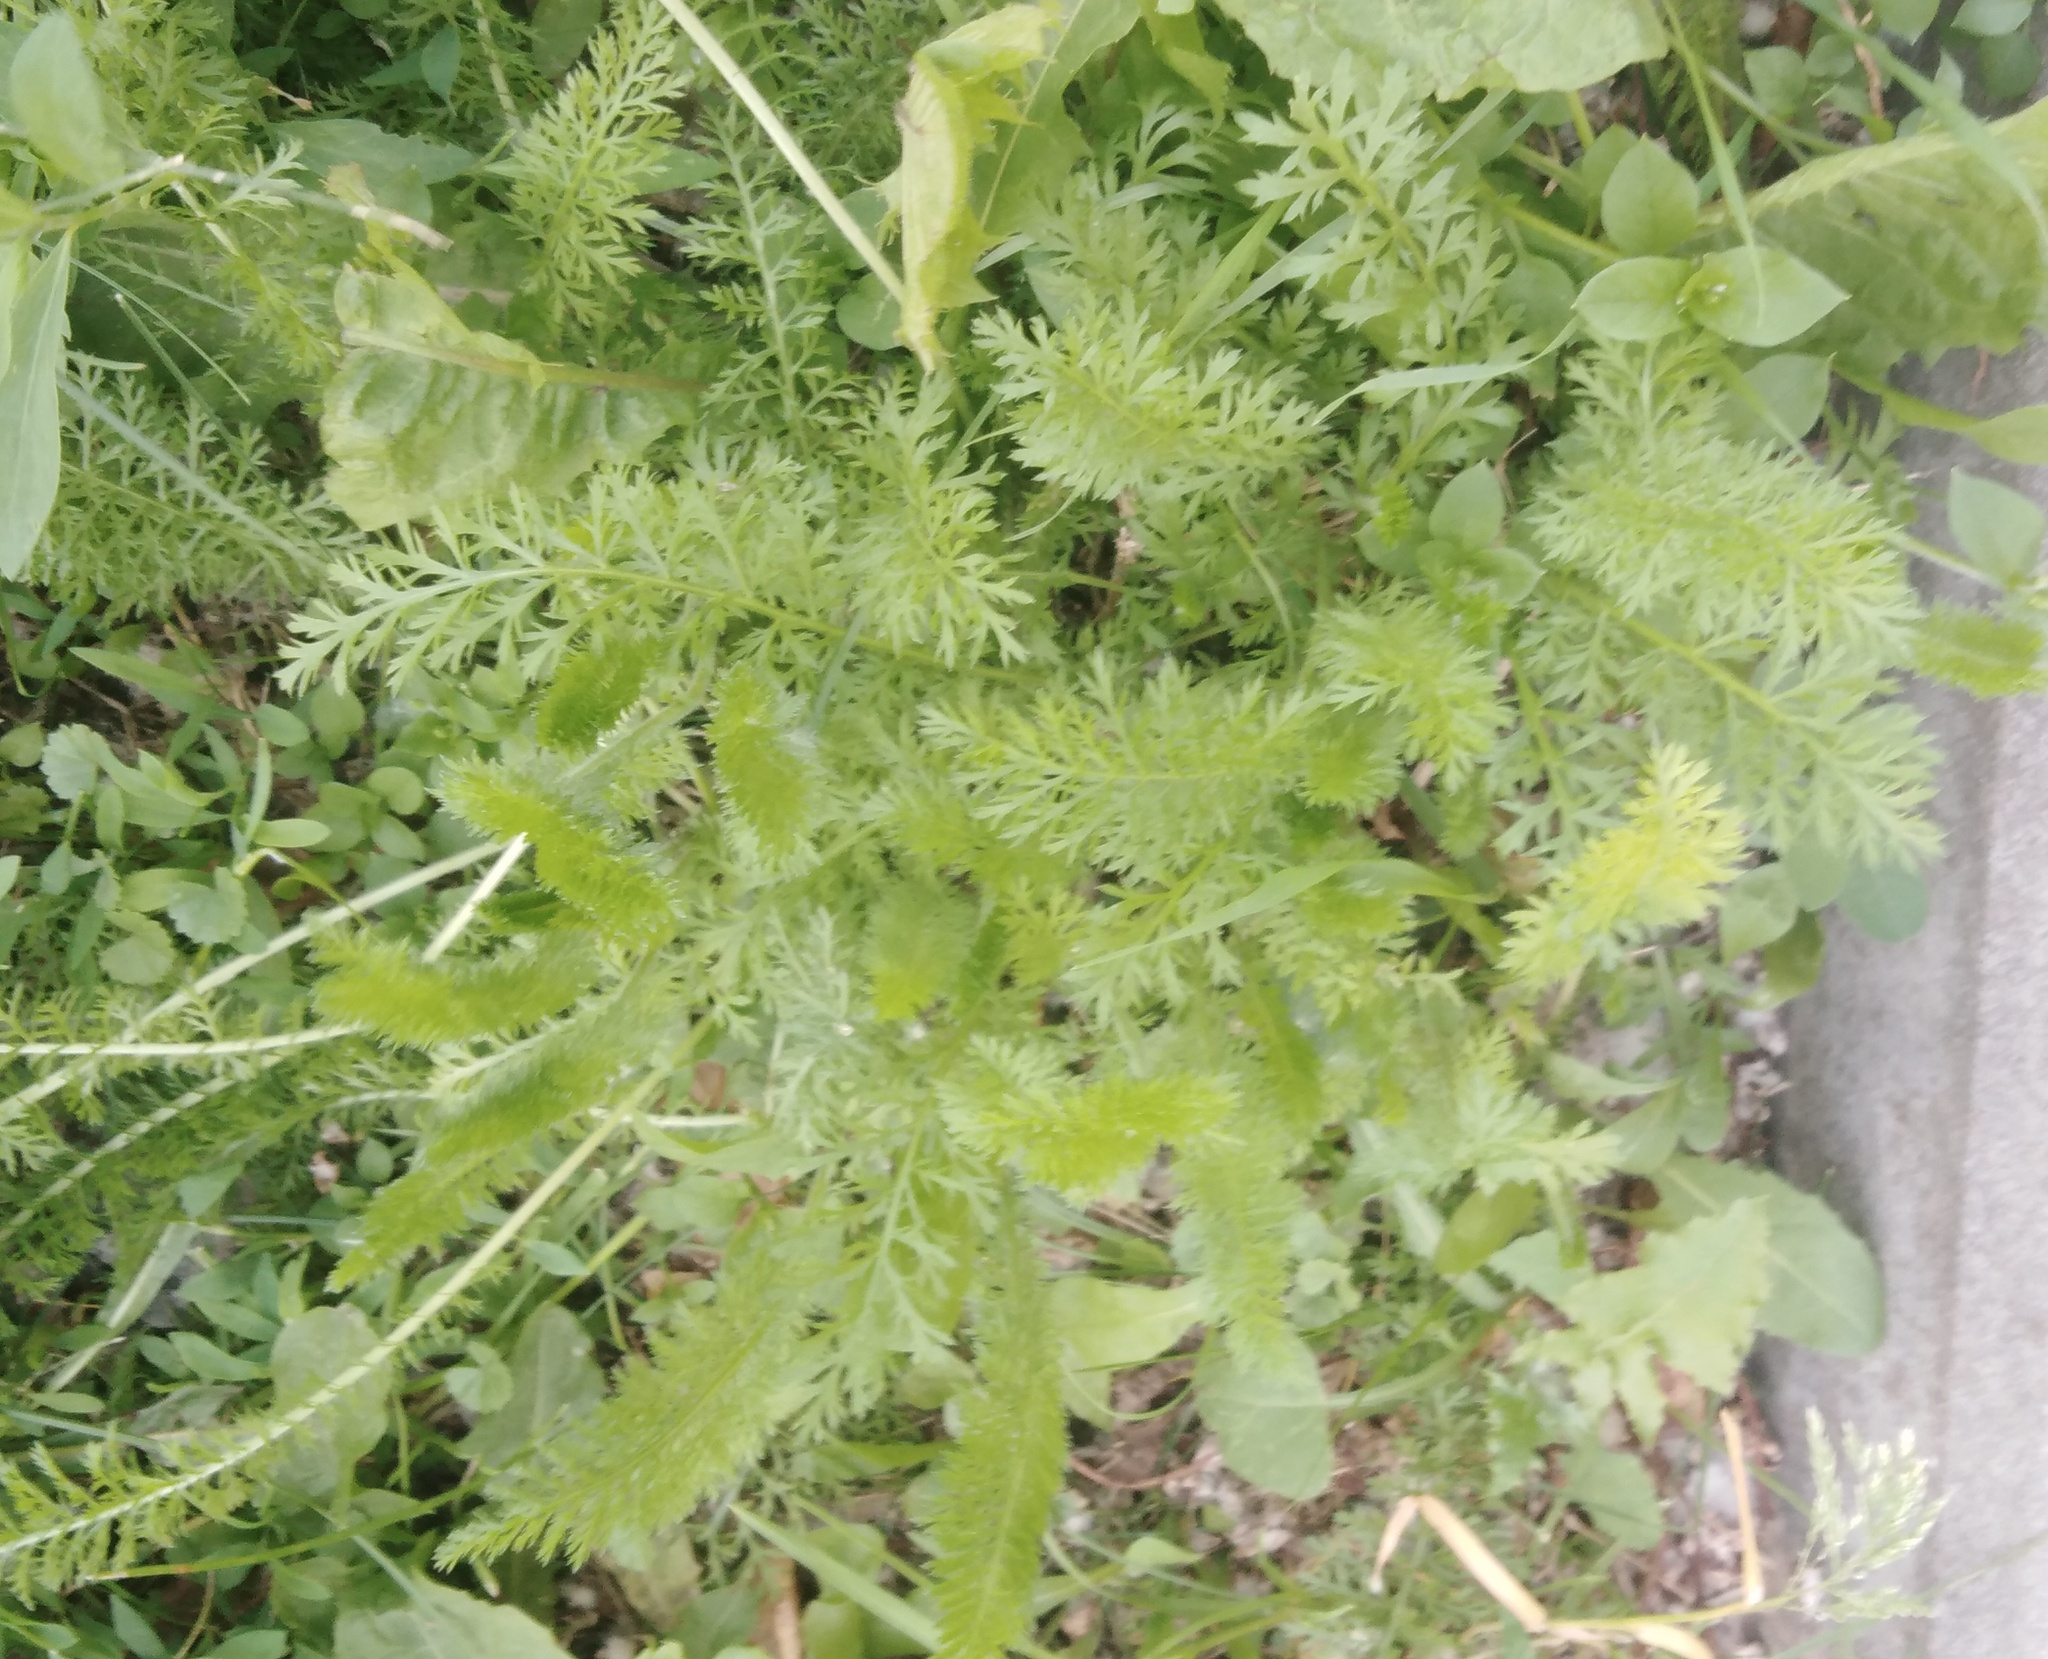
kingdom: Plantae
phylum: Tracheophyta
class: Magnoliopsida
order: Asterales
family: Asteraceae
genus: Achillea
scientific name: Achillea millefolium
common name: Yarrow
